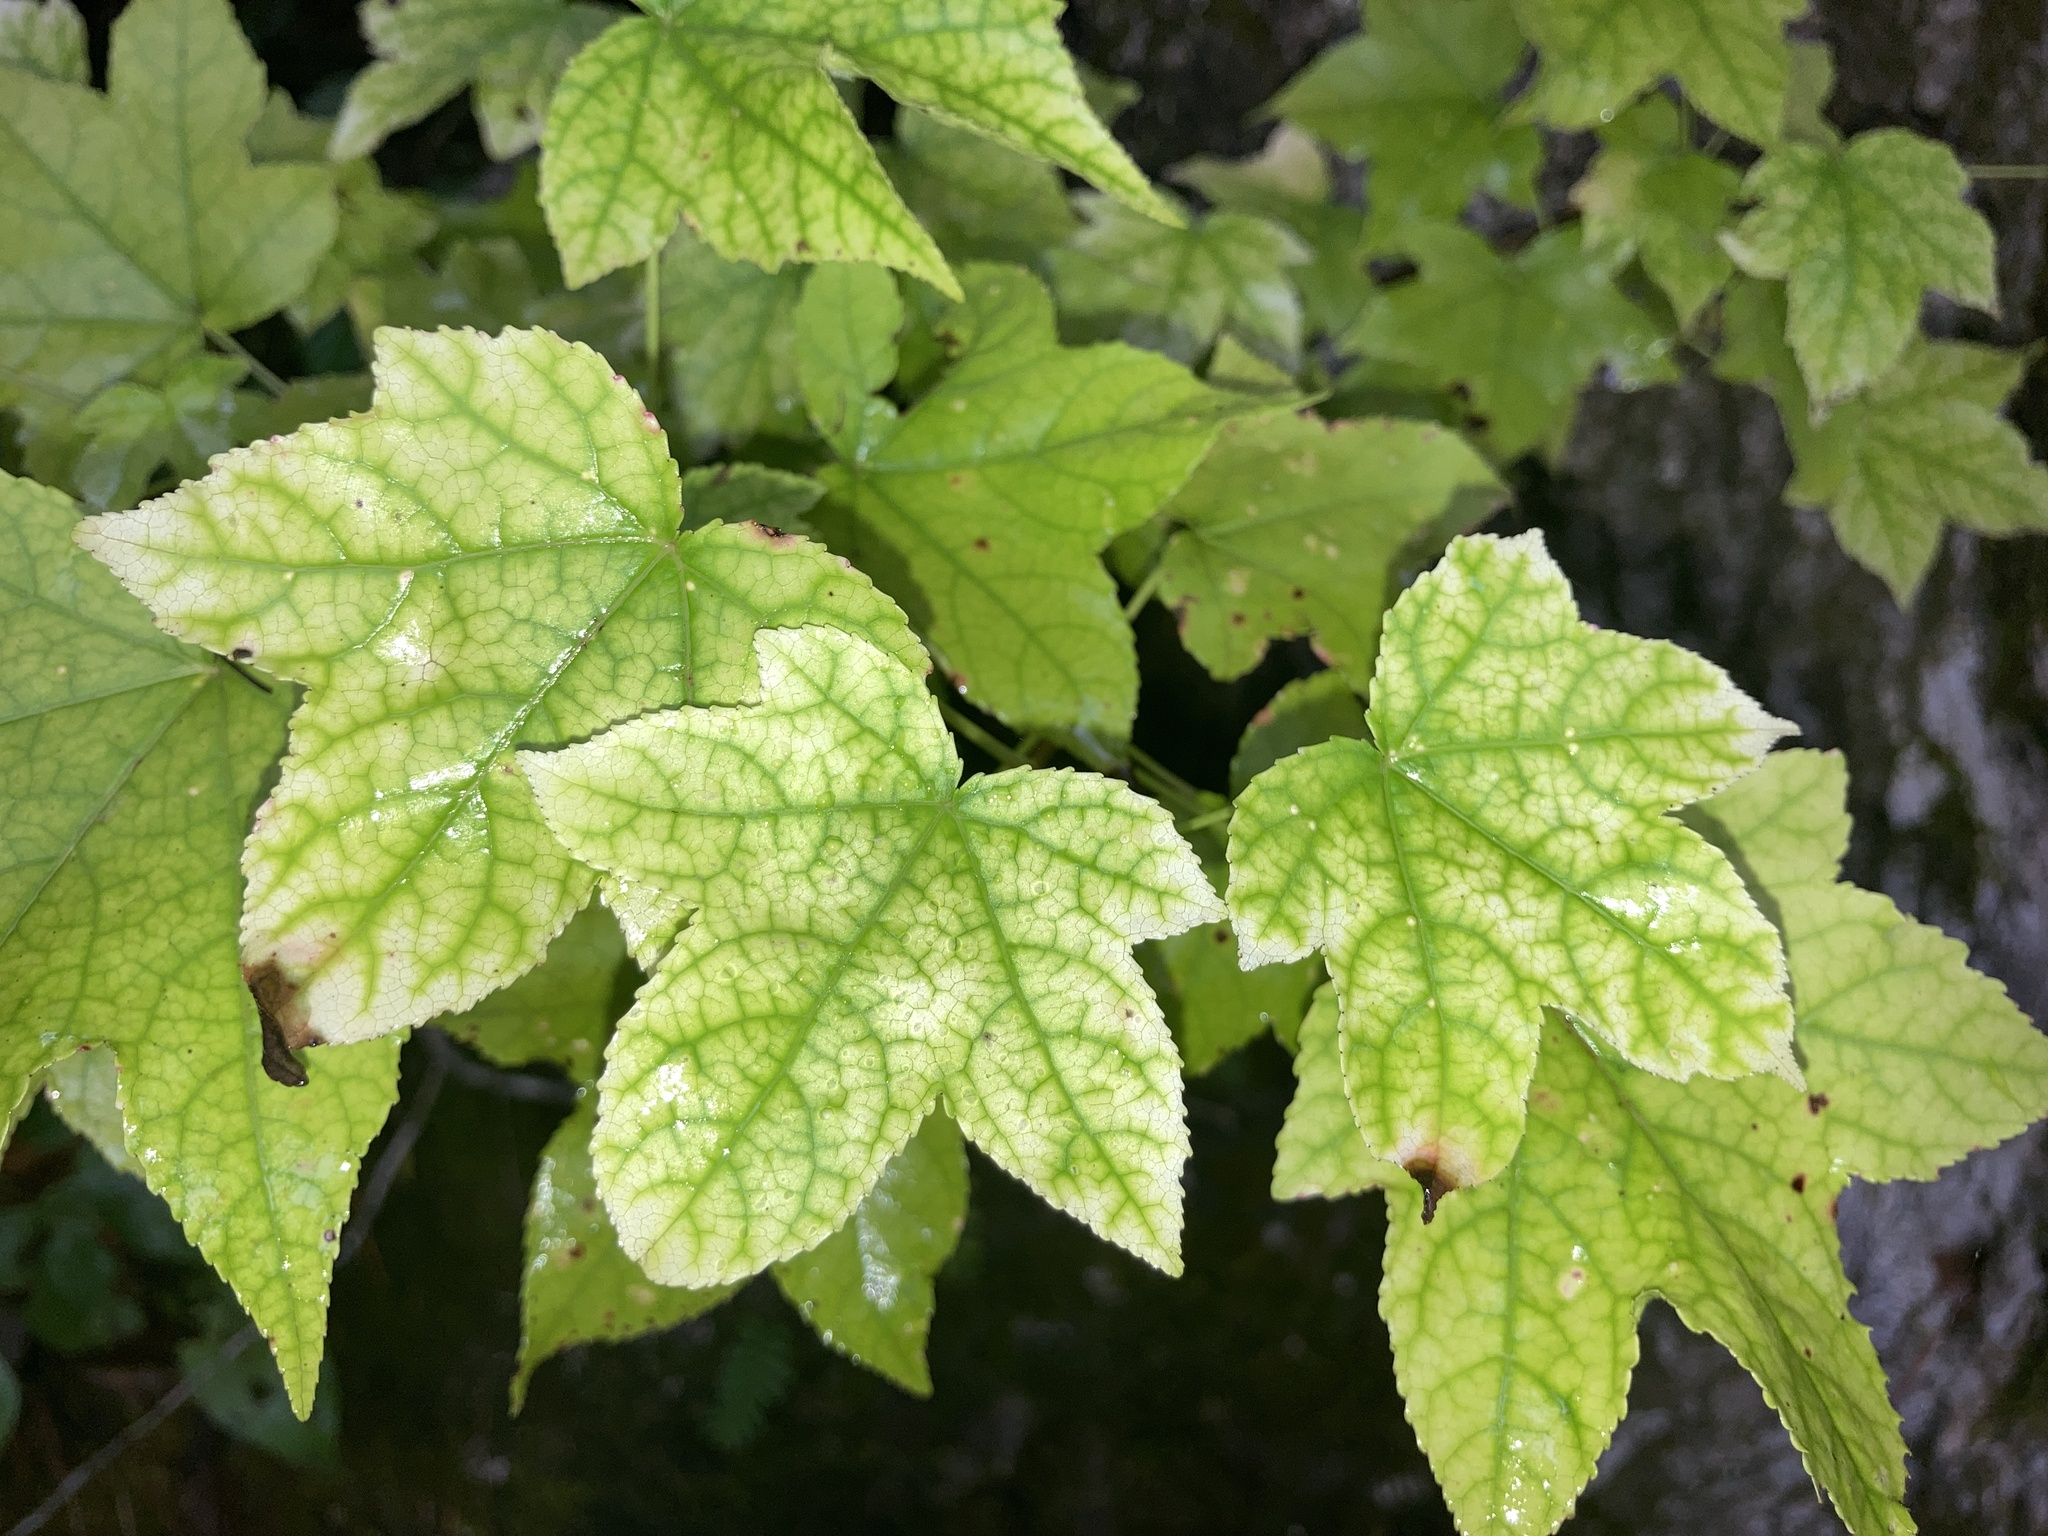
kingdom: Plantae
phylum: Tracheophyta
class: Magnoliopsida
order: Saxifragales
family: Altingiaceae
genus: Liquidambar
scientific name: Liquidambar styraciflua
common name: Sweet gum
